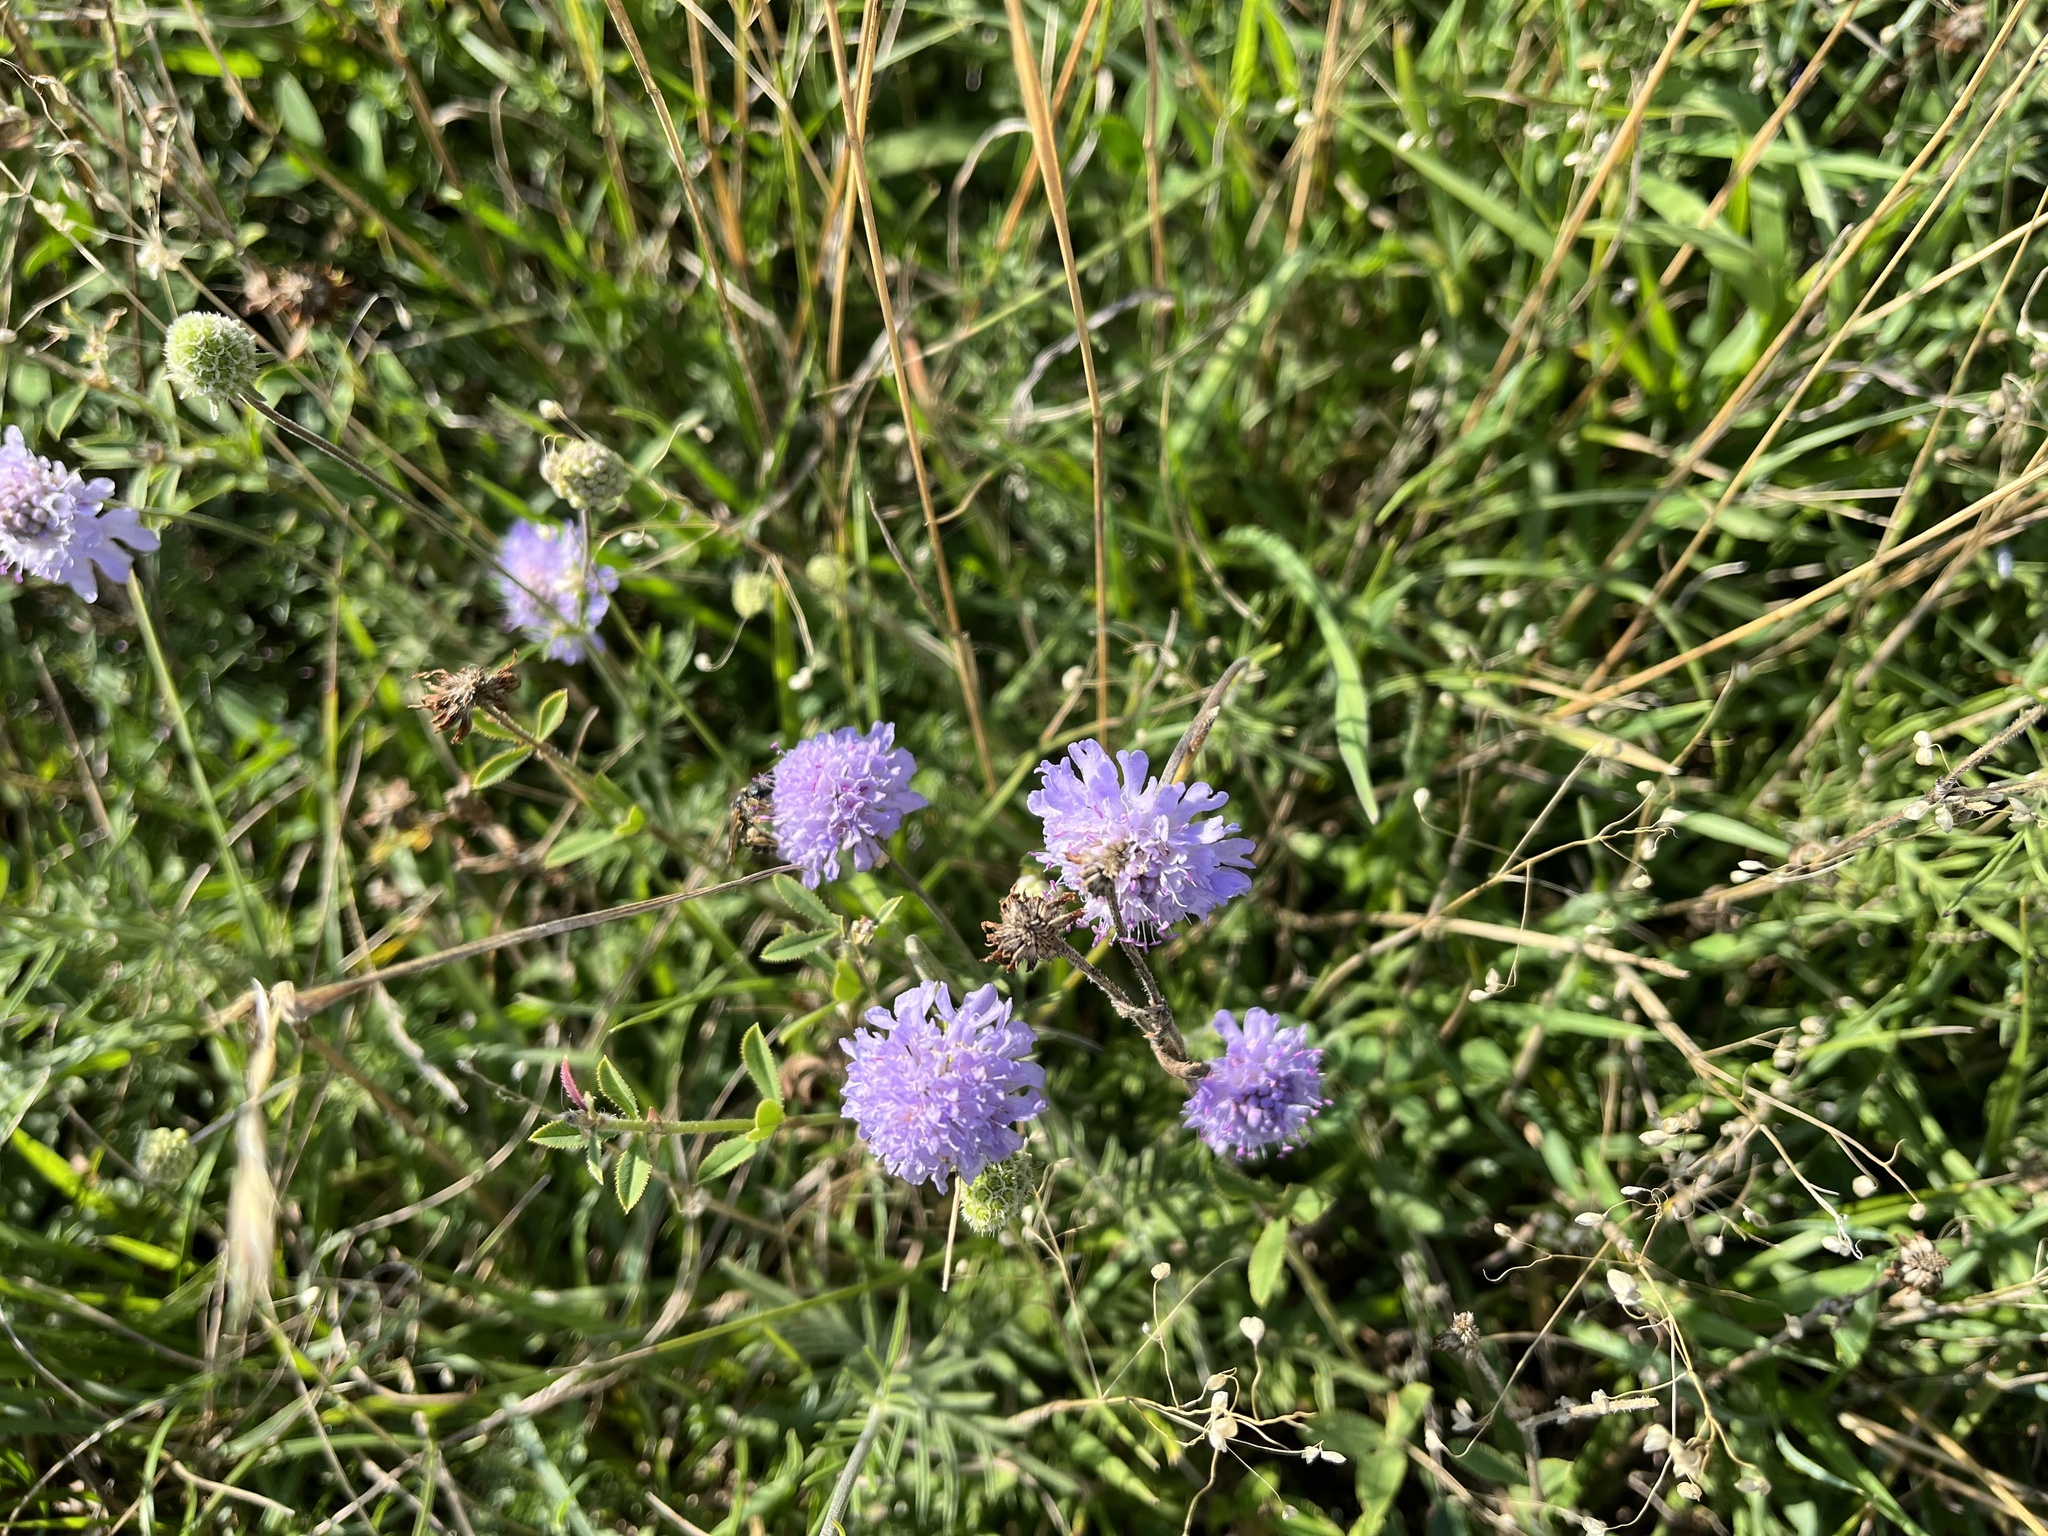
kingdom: Plantae
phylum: Tracheophyta
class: Magnoliopsida
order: Dipsacales
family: Caprifoliaceae
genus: Scabiosa
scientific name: Scabiosa canescens
